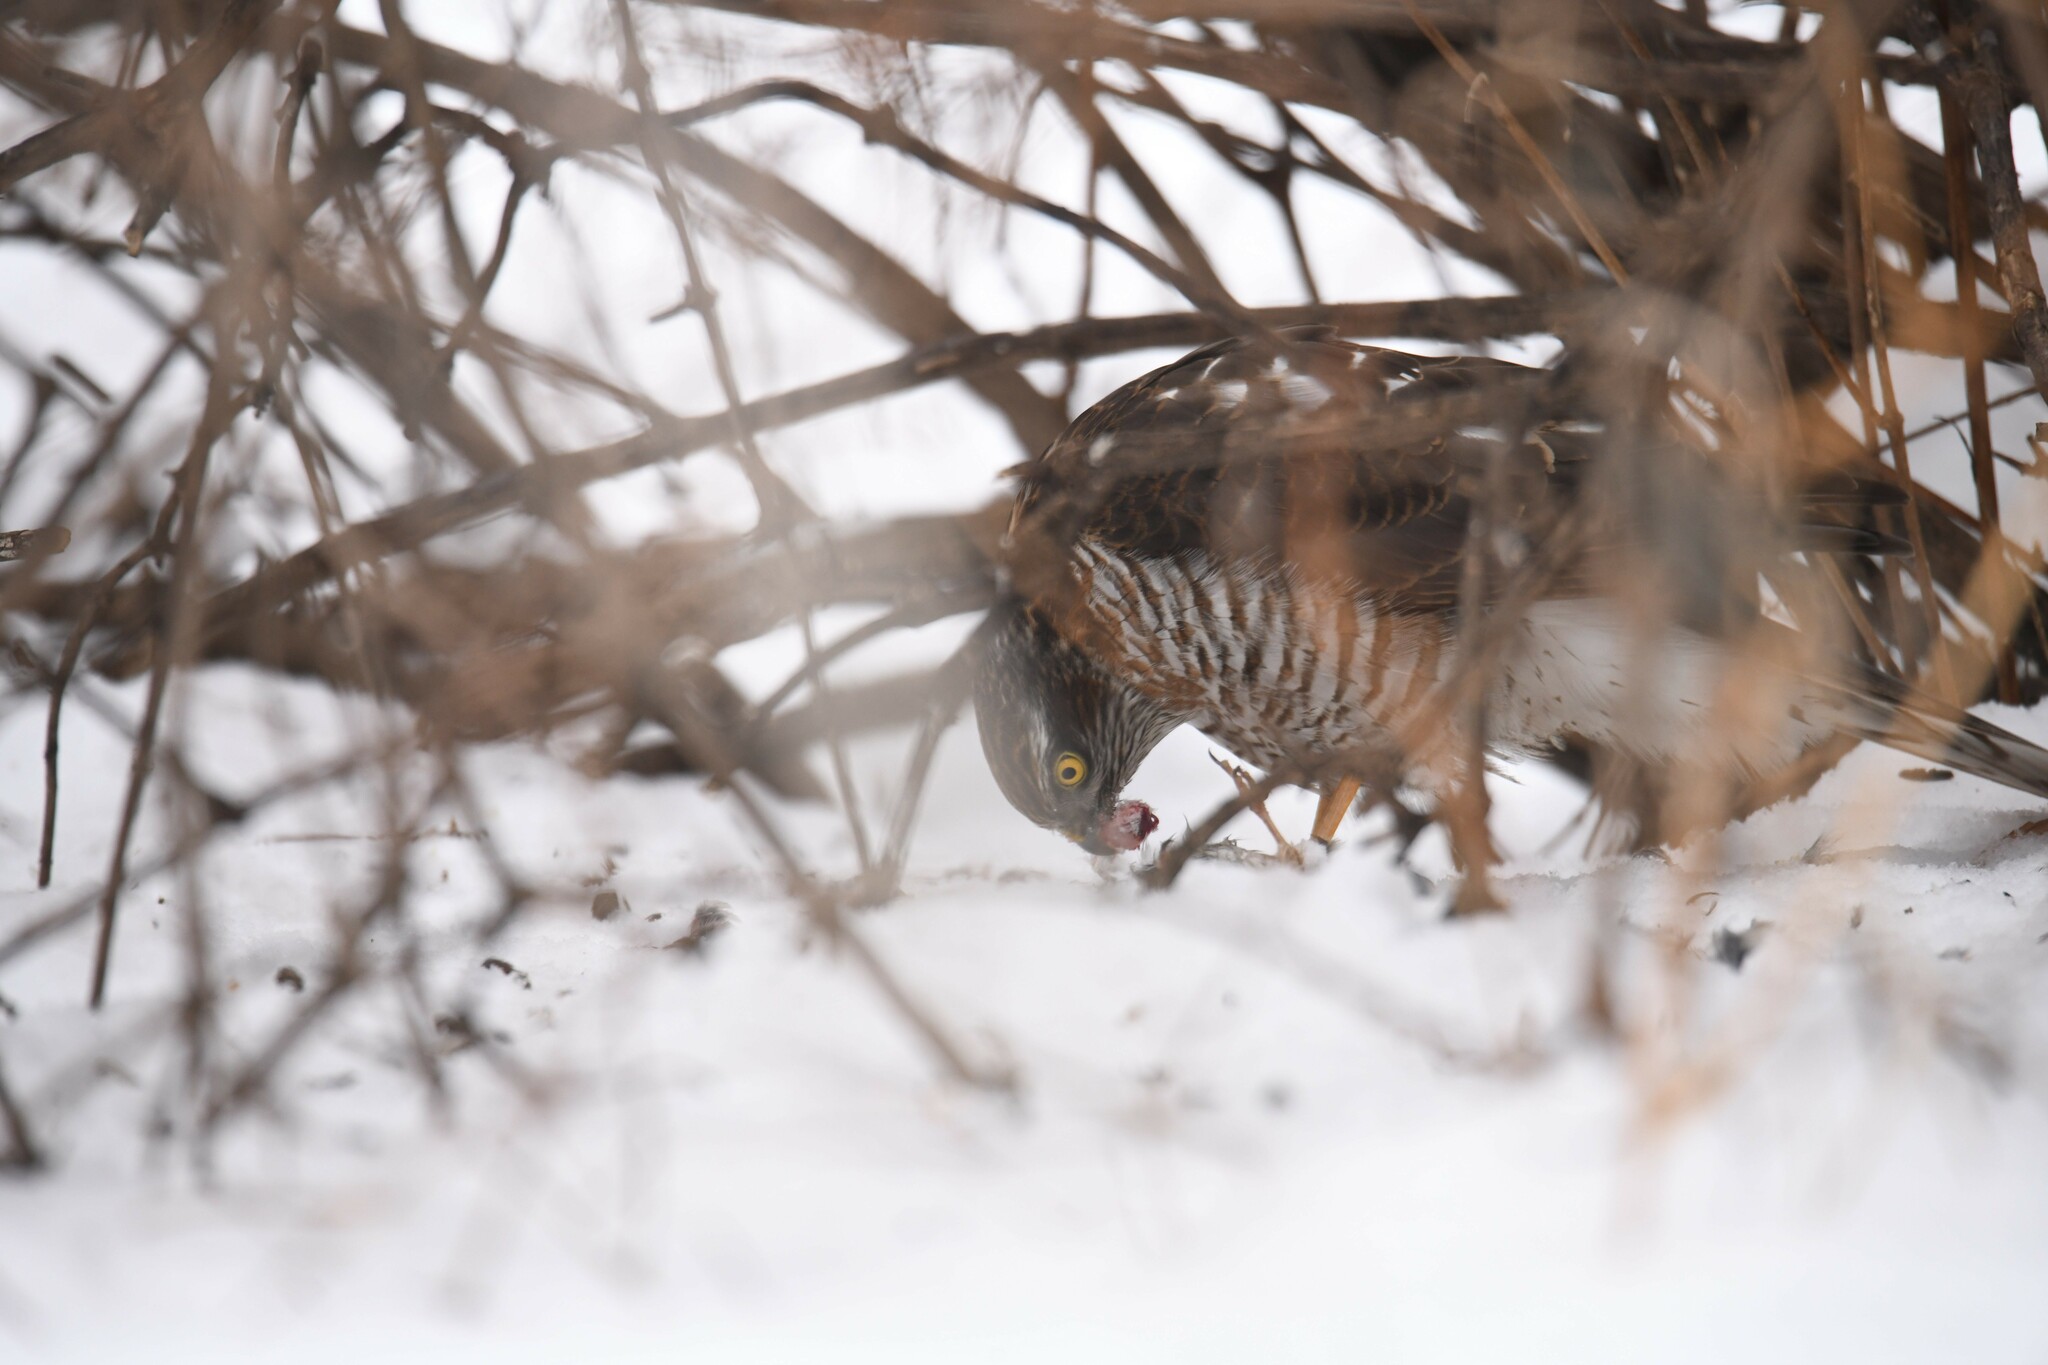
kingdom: Animalia
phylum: Chordata
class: Aves
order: Accipitriformes
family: Accipitridae
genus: Accipiter
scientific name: Accipiter nisus
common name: Eurasian sparrowhawk
